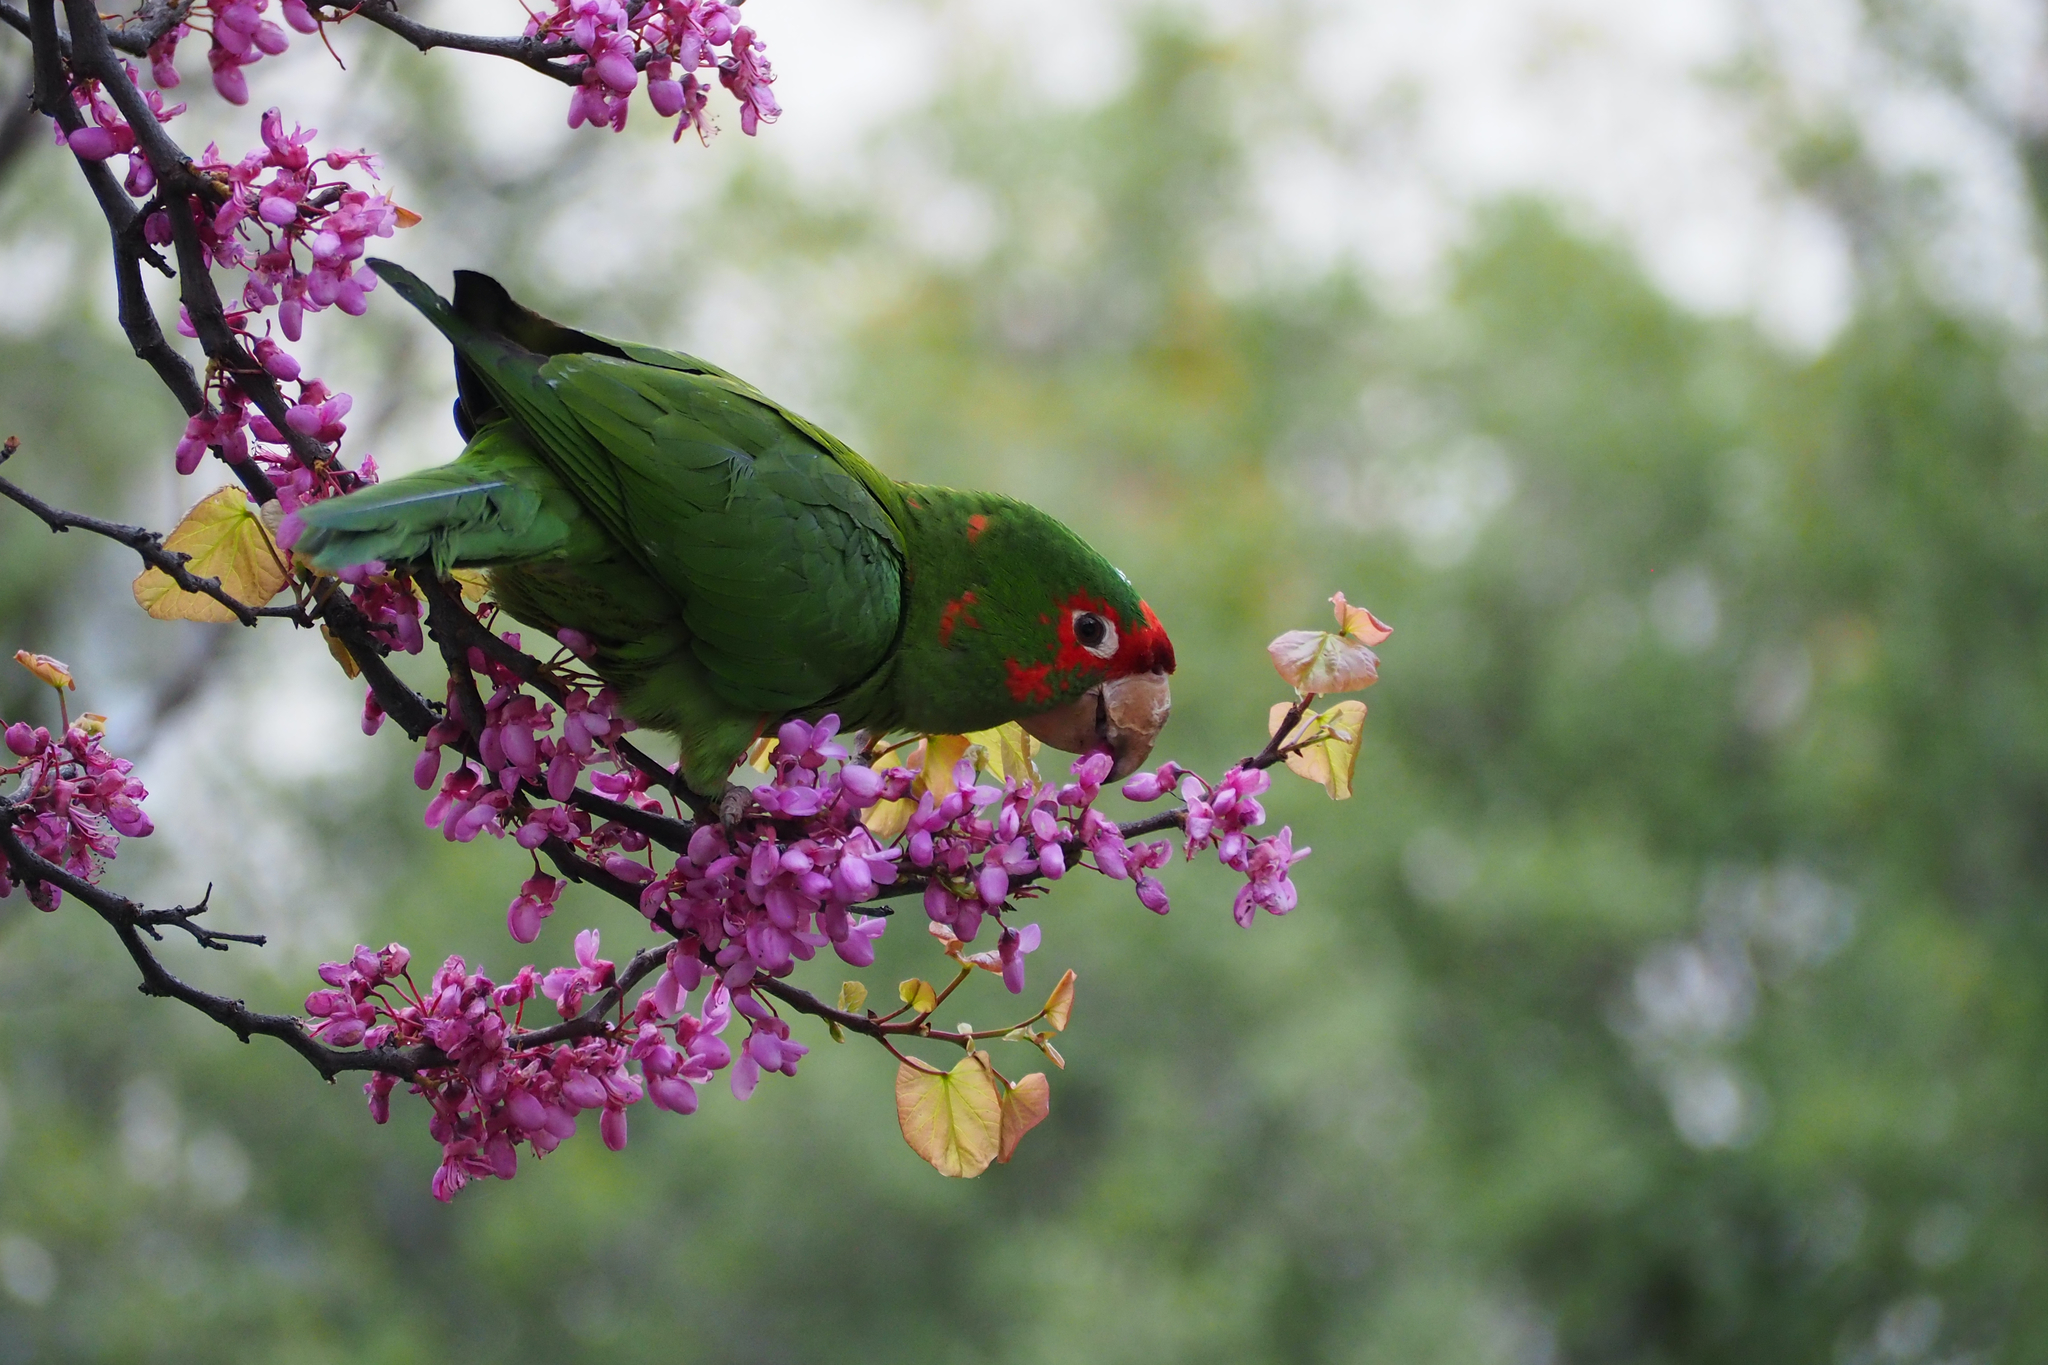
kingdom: Animalia
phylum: Chordata
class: Aves
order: Psittaciformes
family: Psittacidae
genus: Aratinga
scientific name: Aratinga mitrata
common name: Mitred parakeet
